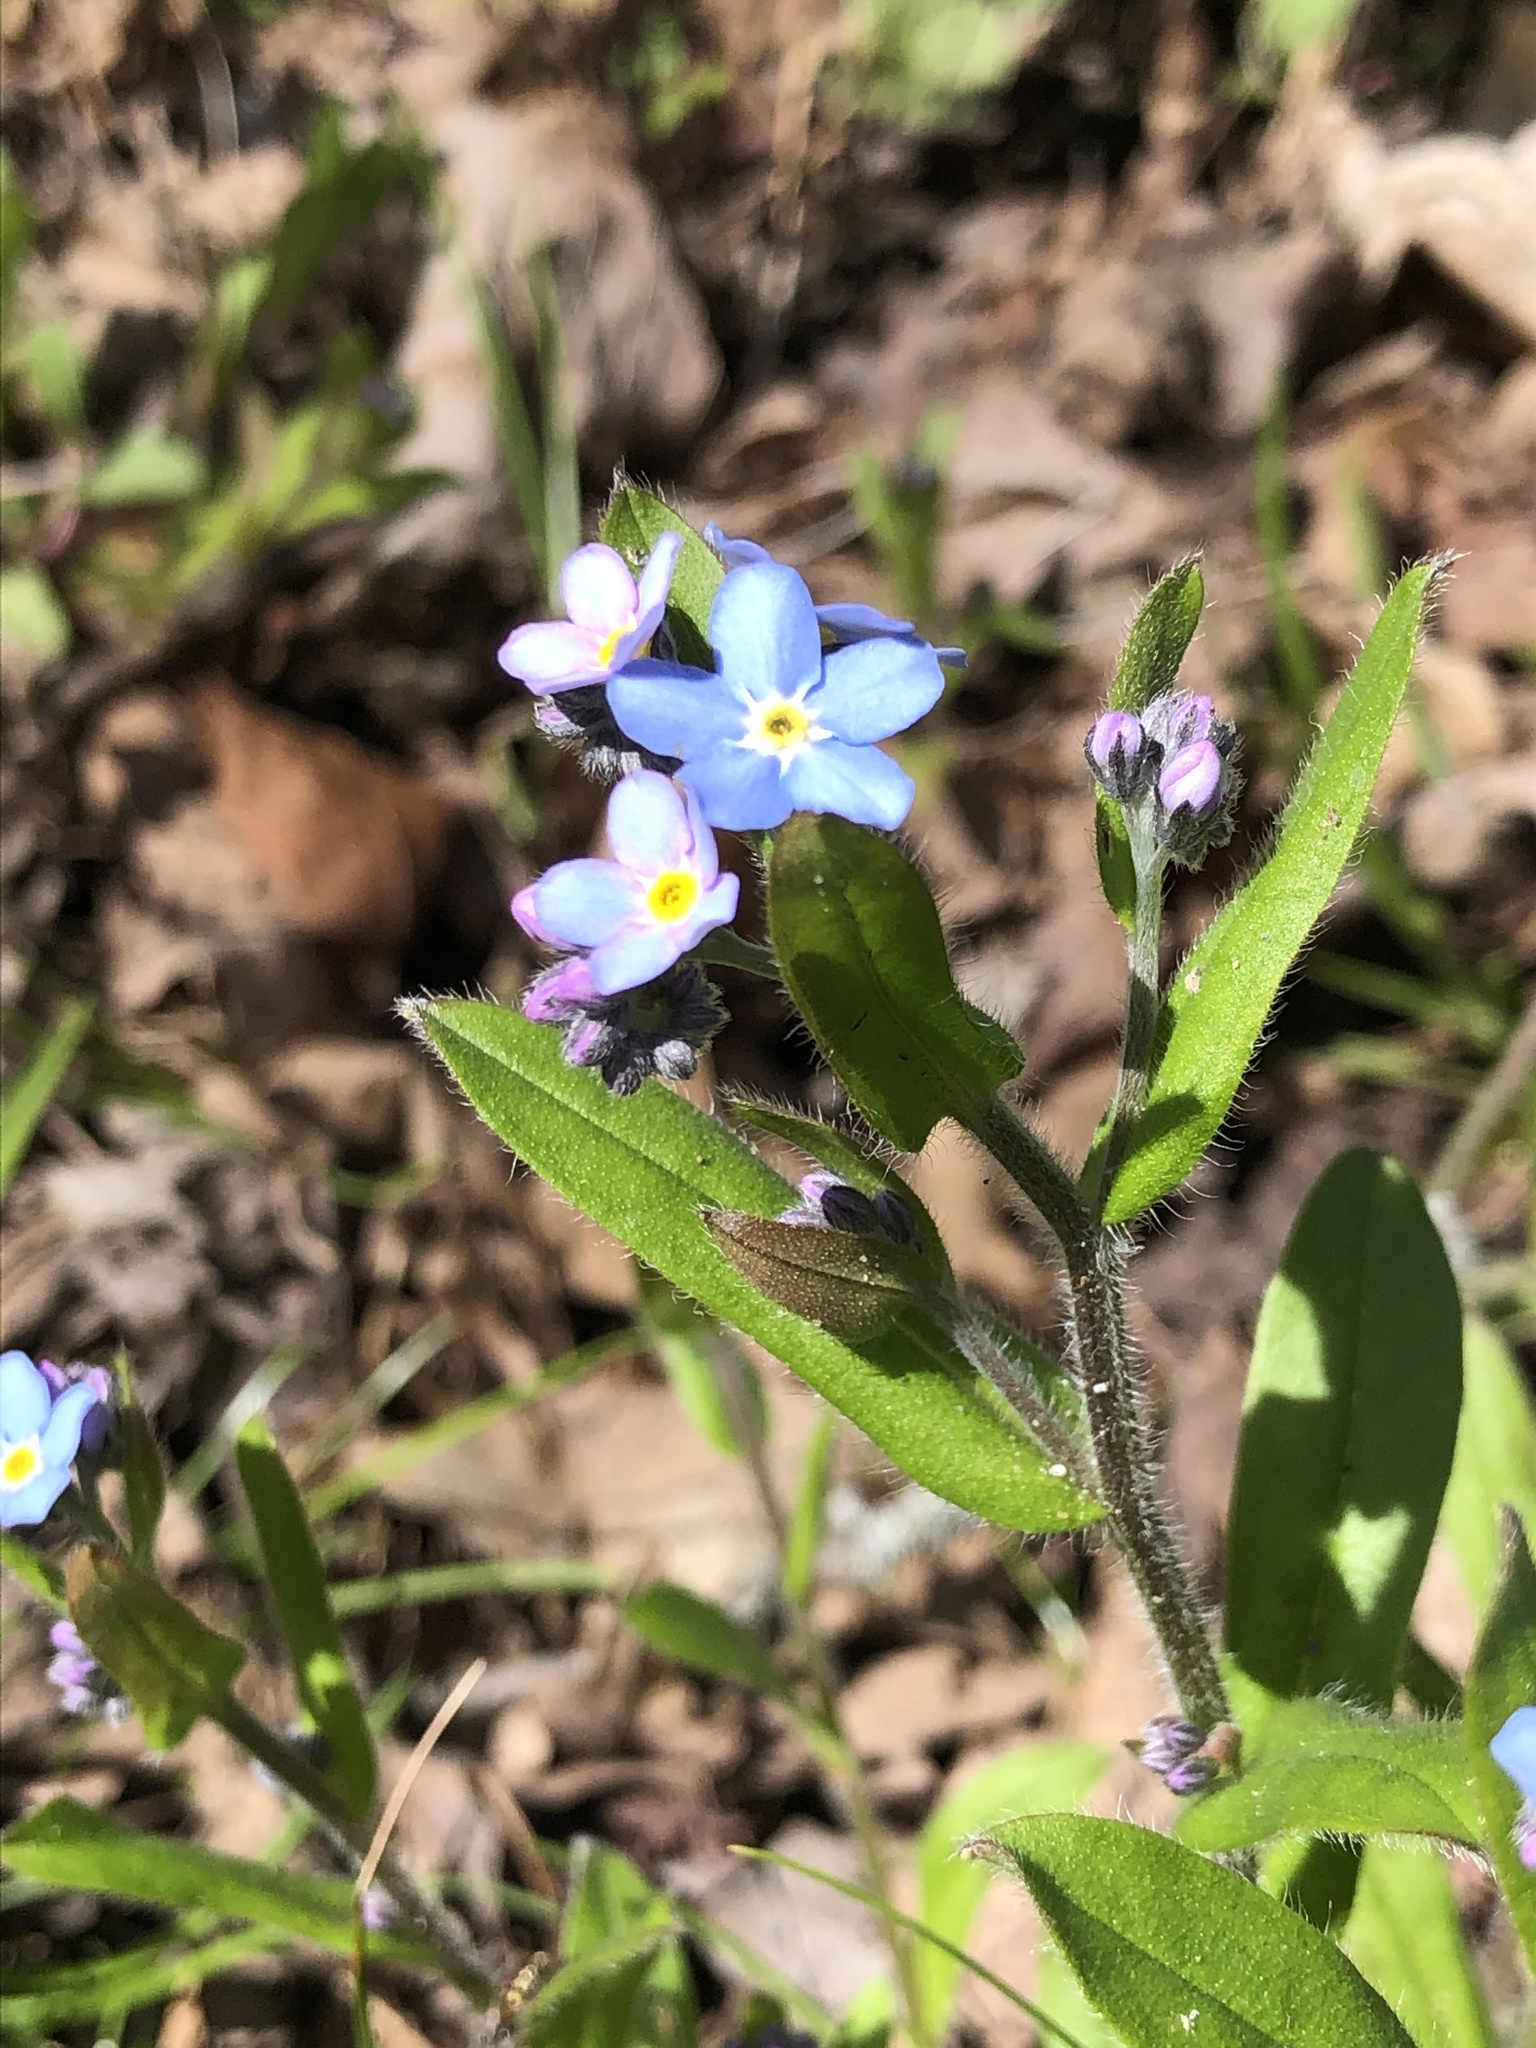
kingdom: Plantae
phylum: Tracheophyta
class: Magnoliopsida
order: Boraginales
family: Boraginaceae
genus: Myosotis
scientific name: Myosotis sylvatica
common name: Wood forget-me-not
